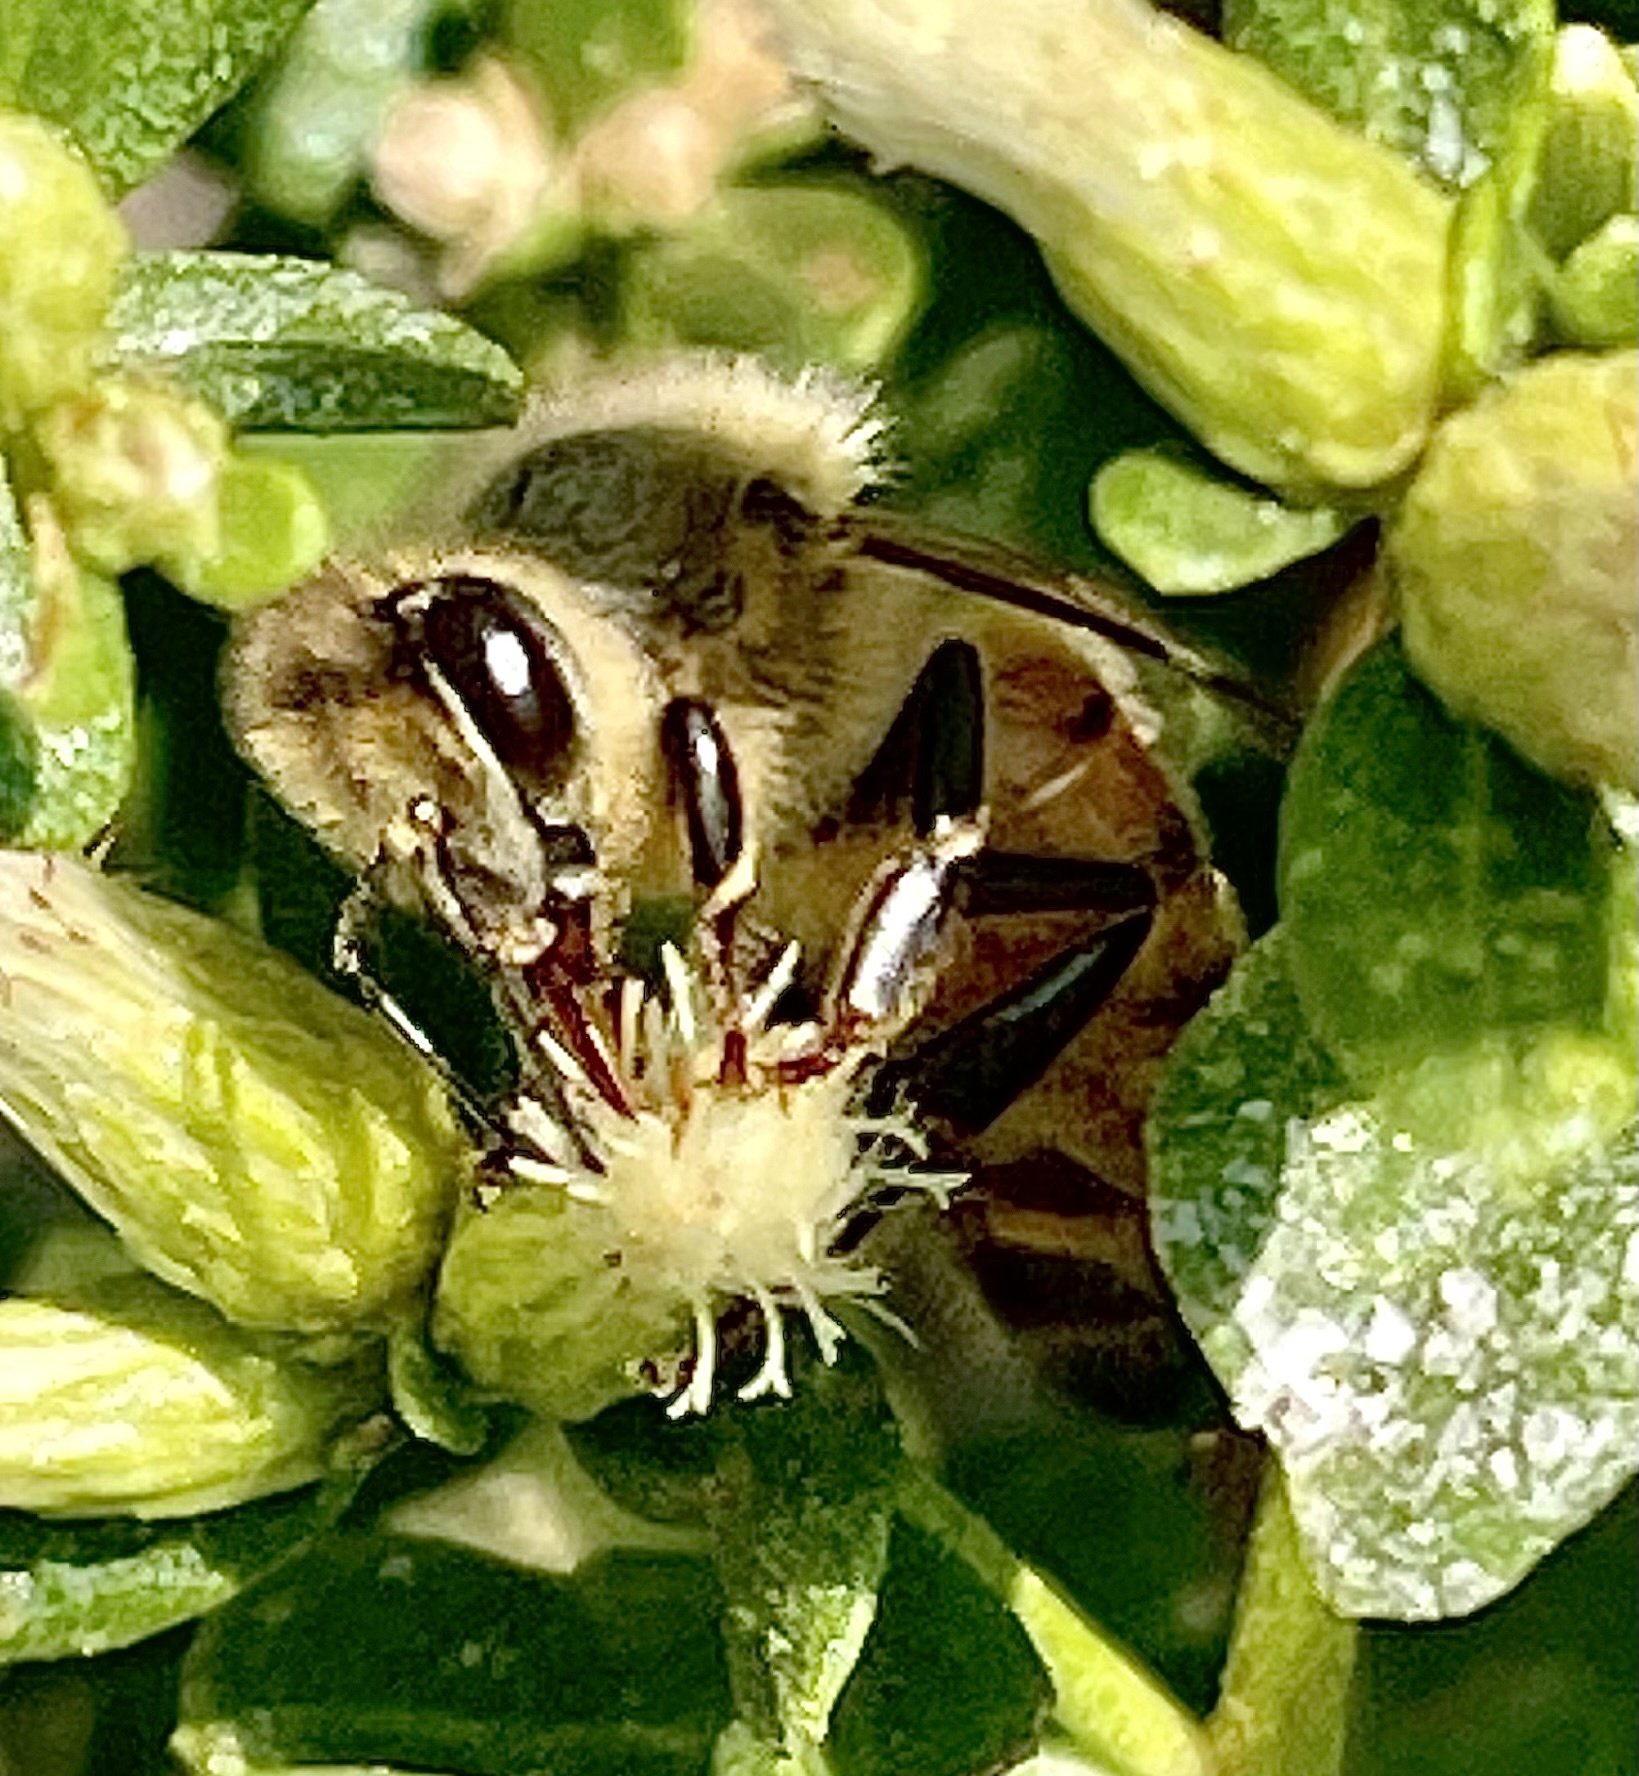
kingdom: Plantae
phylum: Tracheophyta
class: Magnoliopsida
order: Asterales
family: Asteraceae
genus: Baccharis
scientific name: Baccharis pilularis
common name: Coyotebrush
